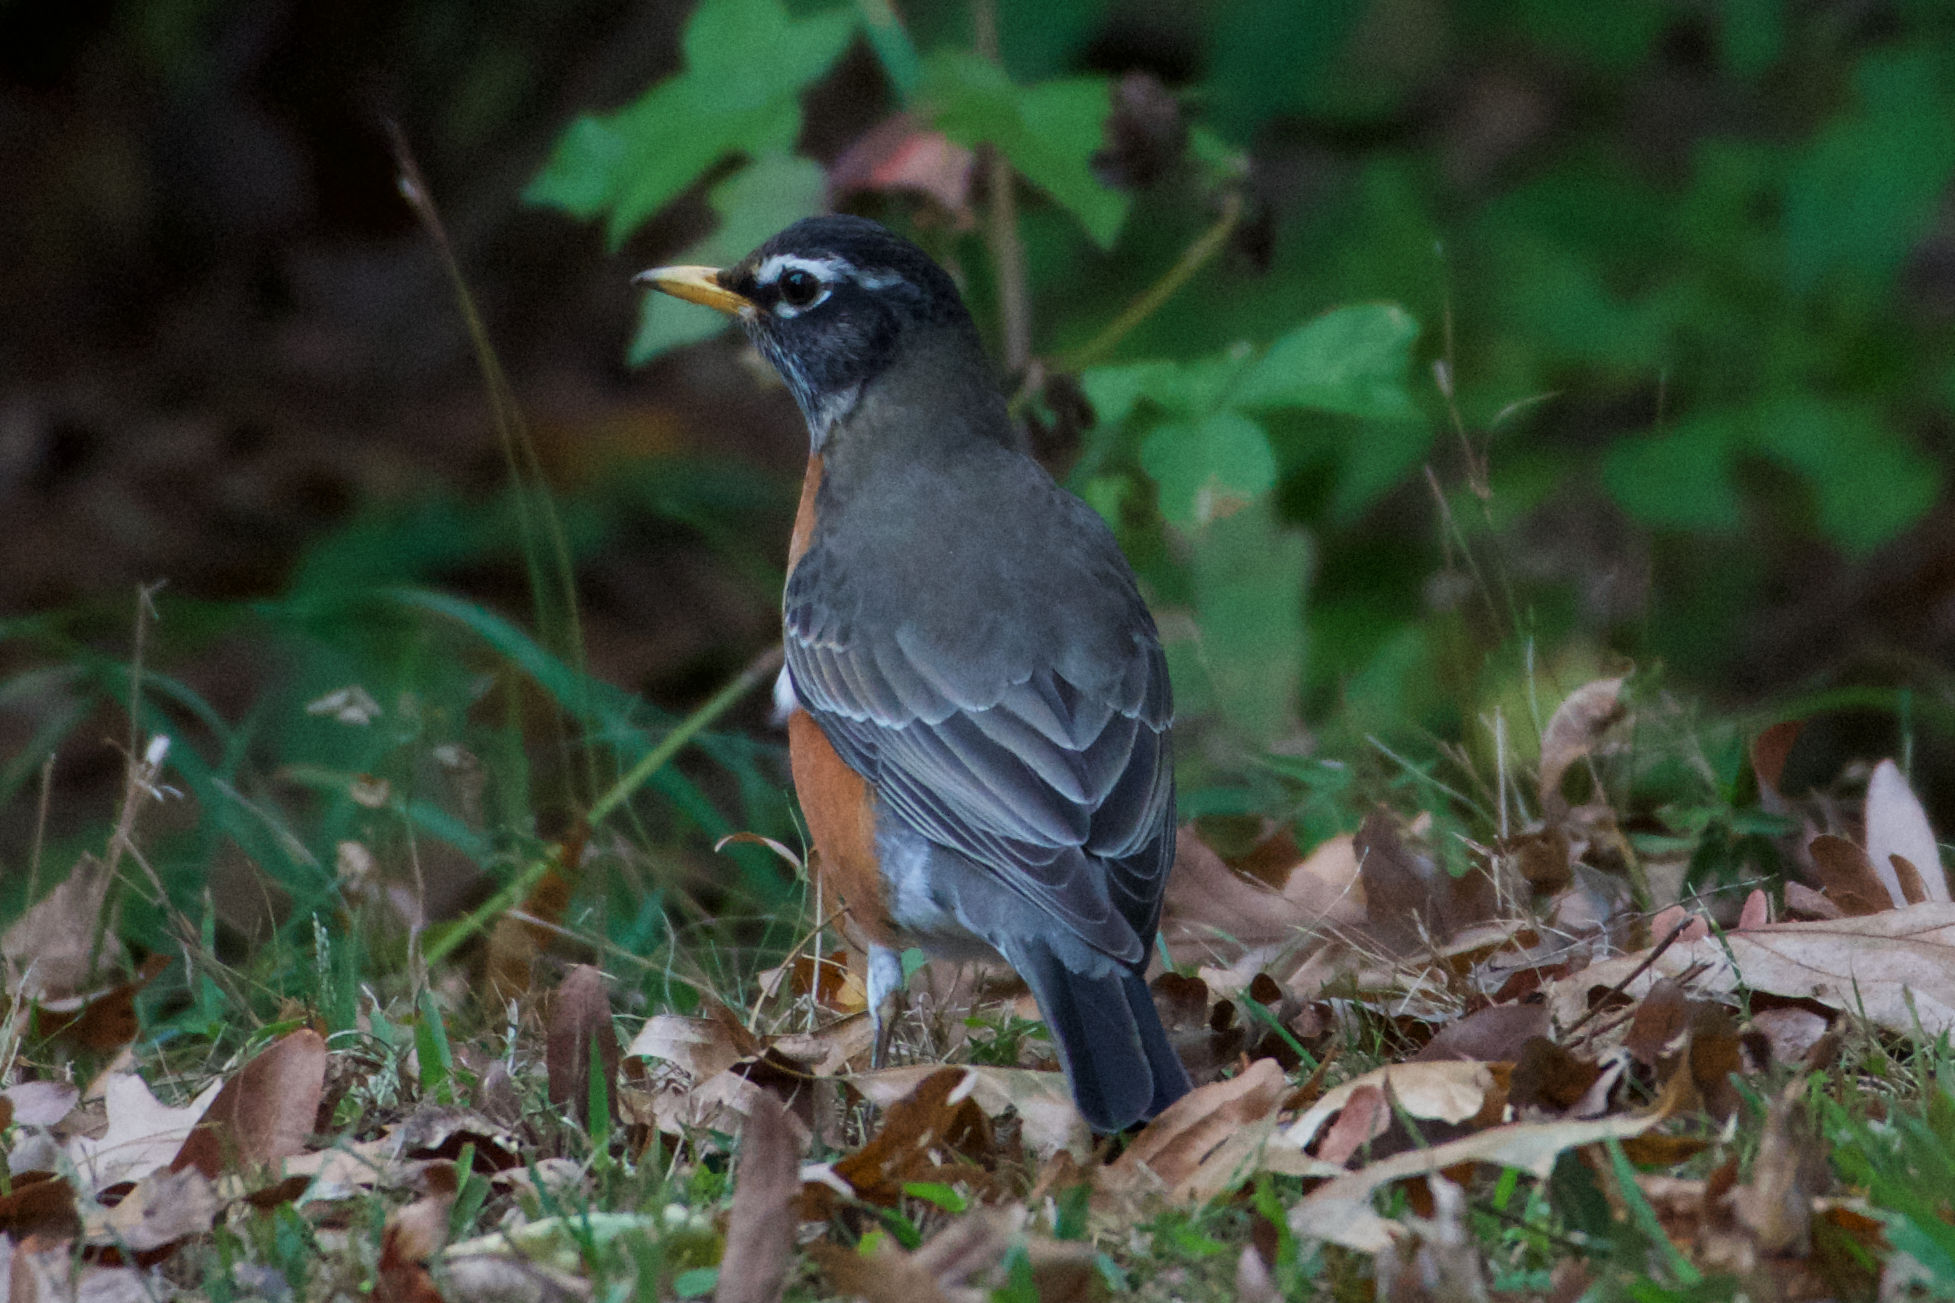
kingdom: Animalia
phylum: Chordata
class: Aves
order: Passeriformes
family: Turdidae
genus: Turdus
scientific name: Turdus migratorius
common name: American robin
